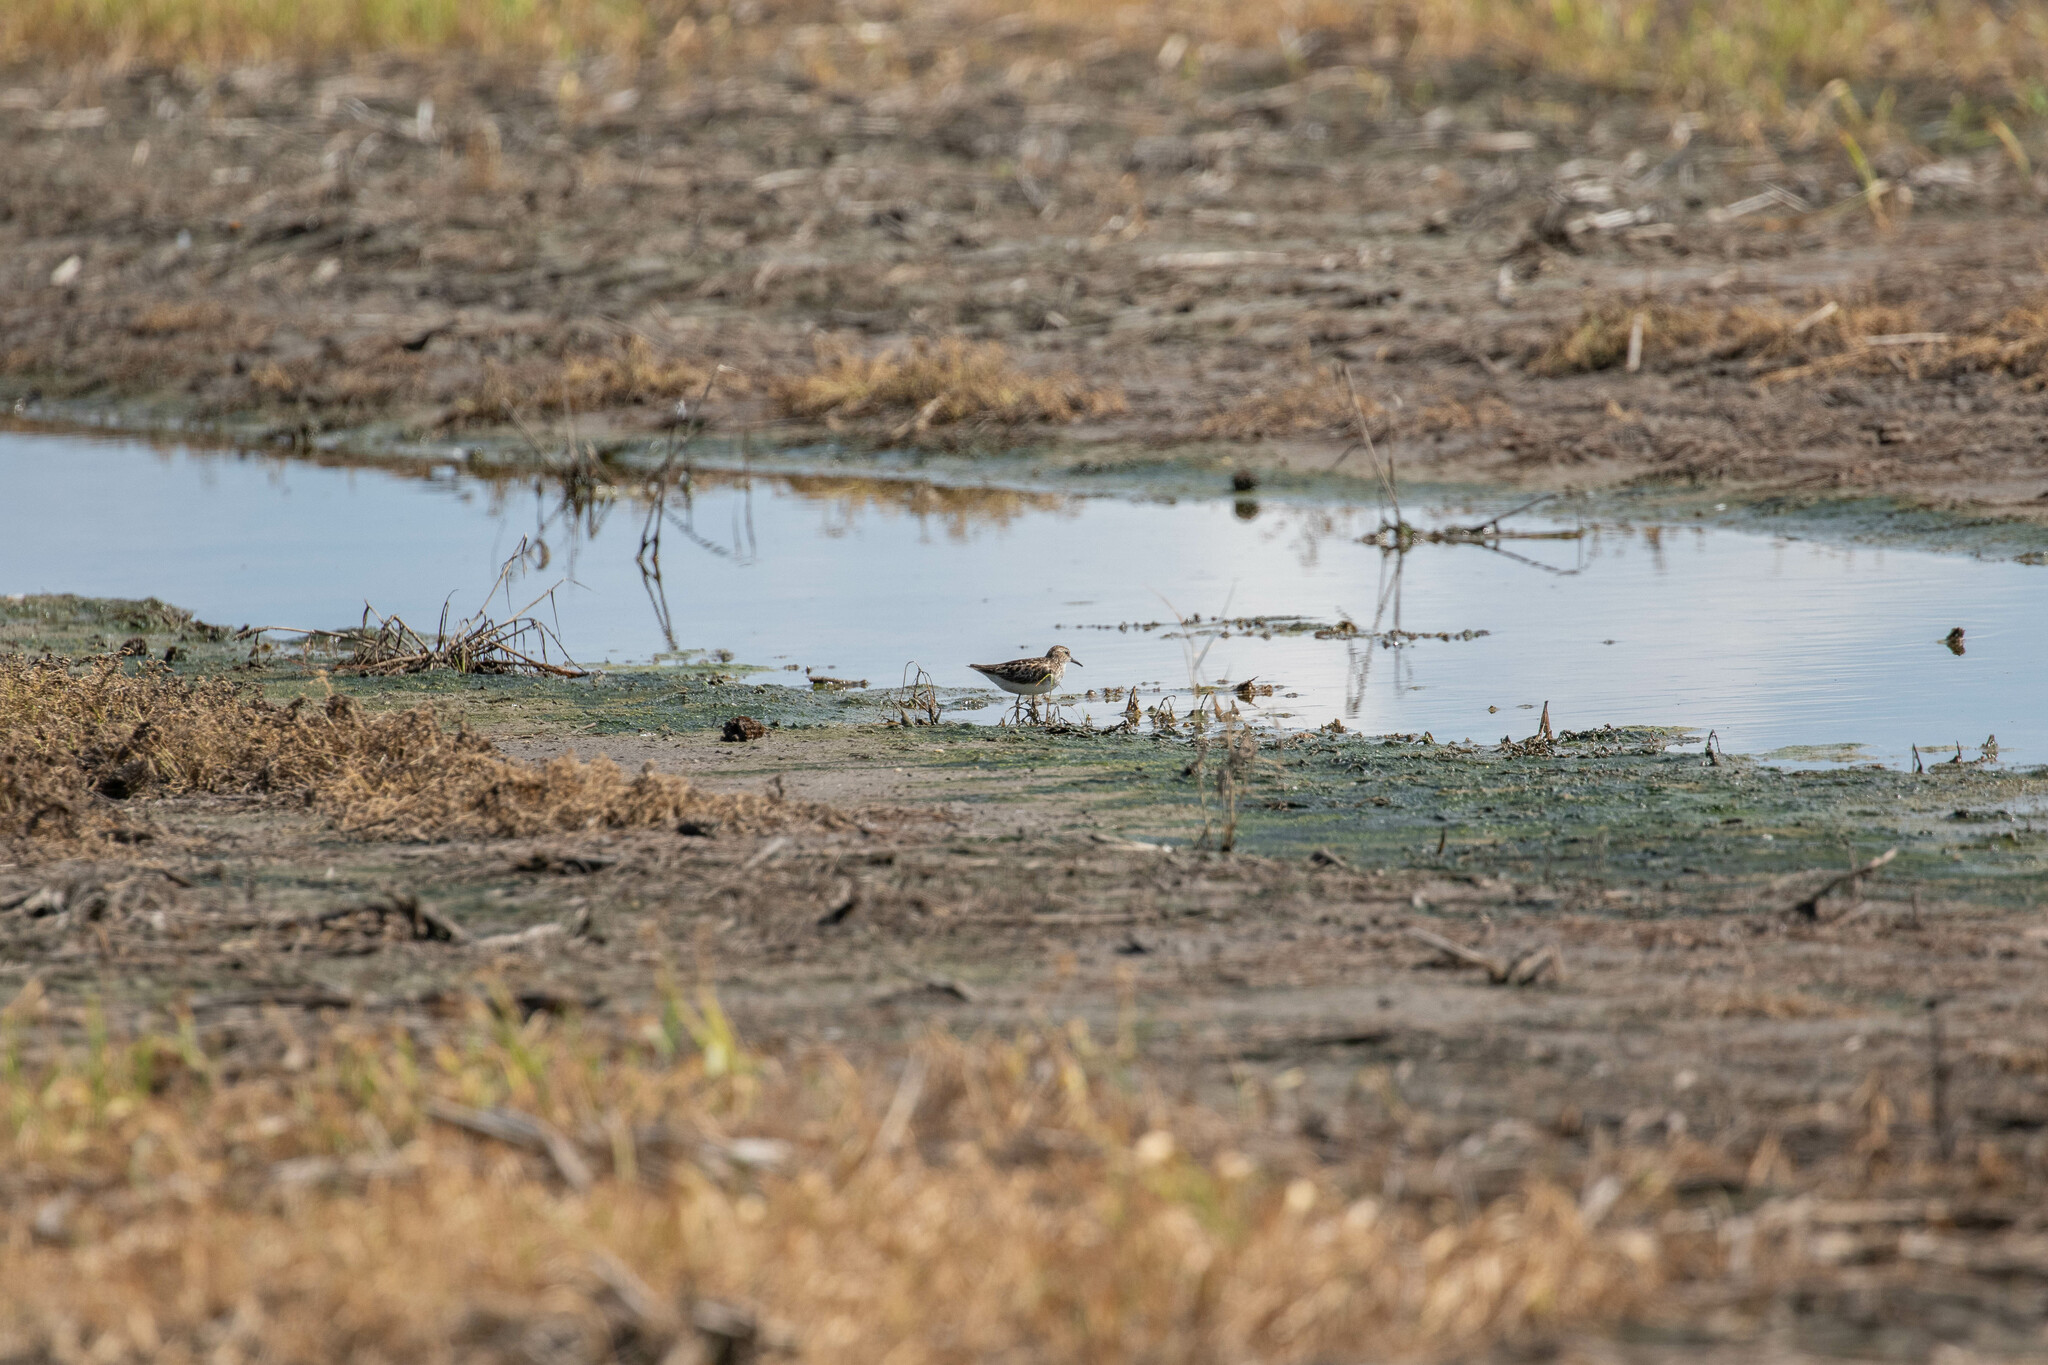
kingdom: Animalia
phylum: Chordata
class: Aves
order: Charadriiformes
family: Scolopacidae
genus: Calidris
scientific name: Calidris minutilla
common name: Least sandpiper
